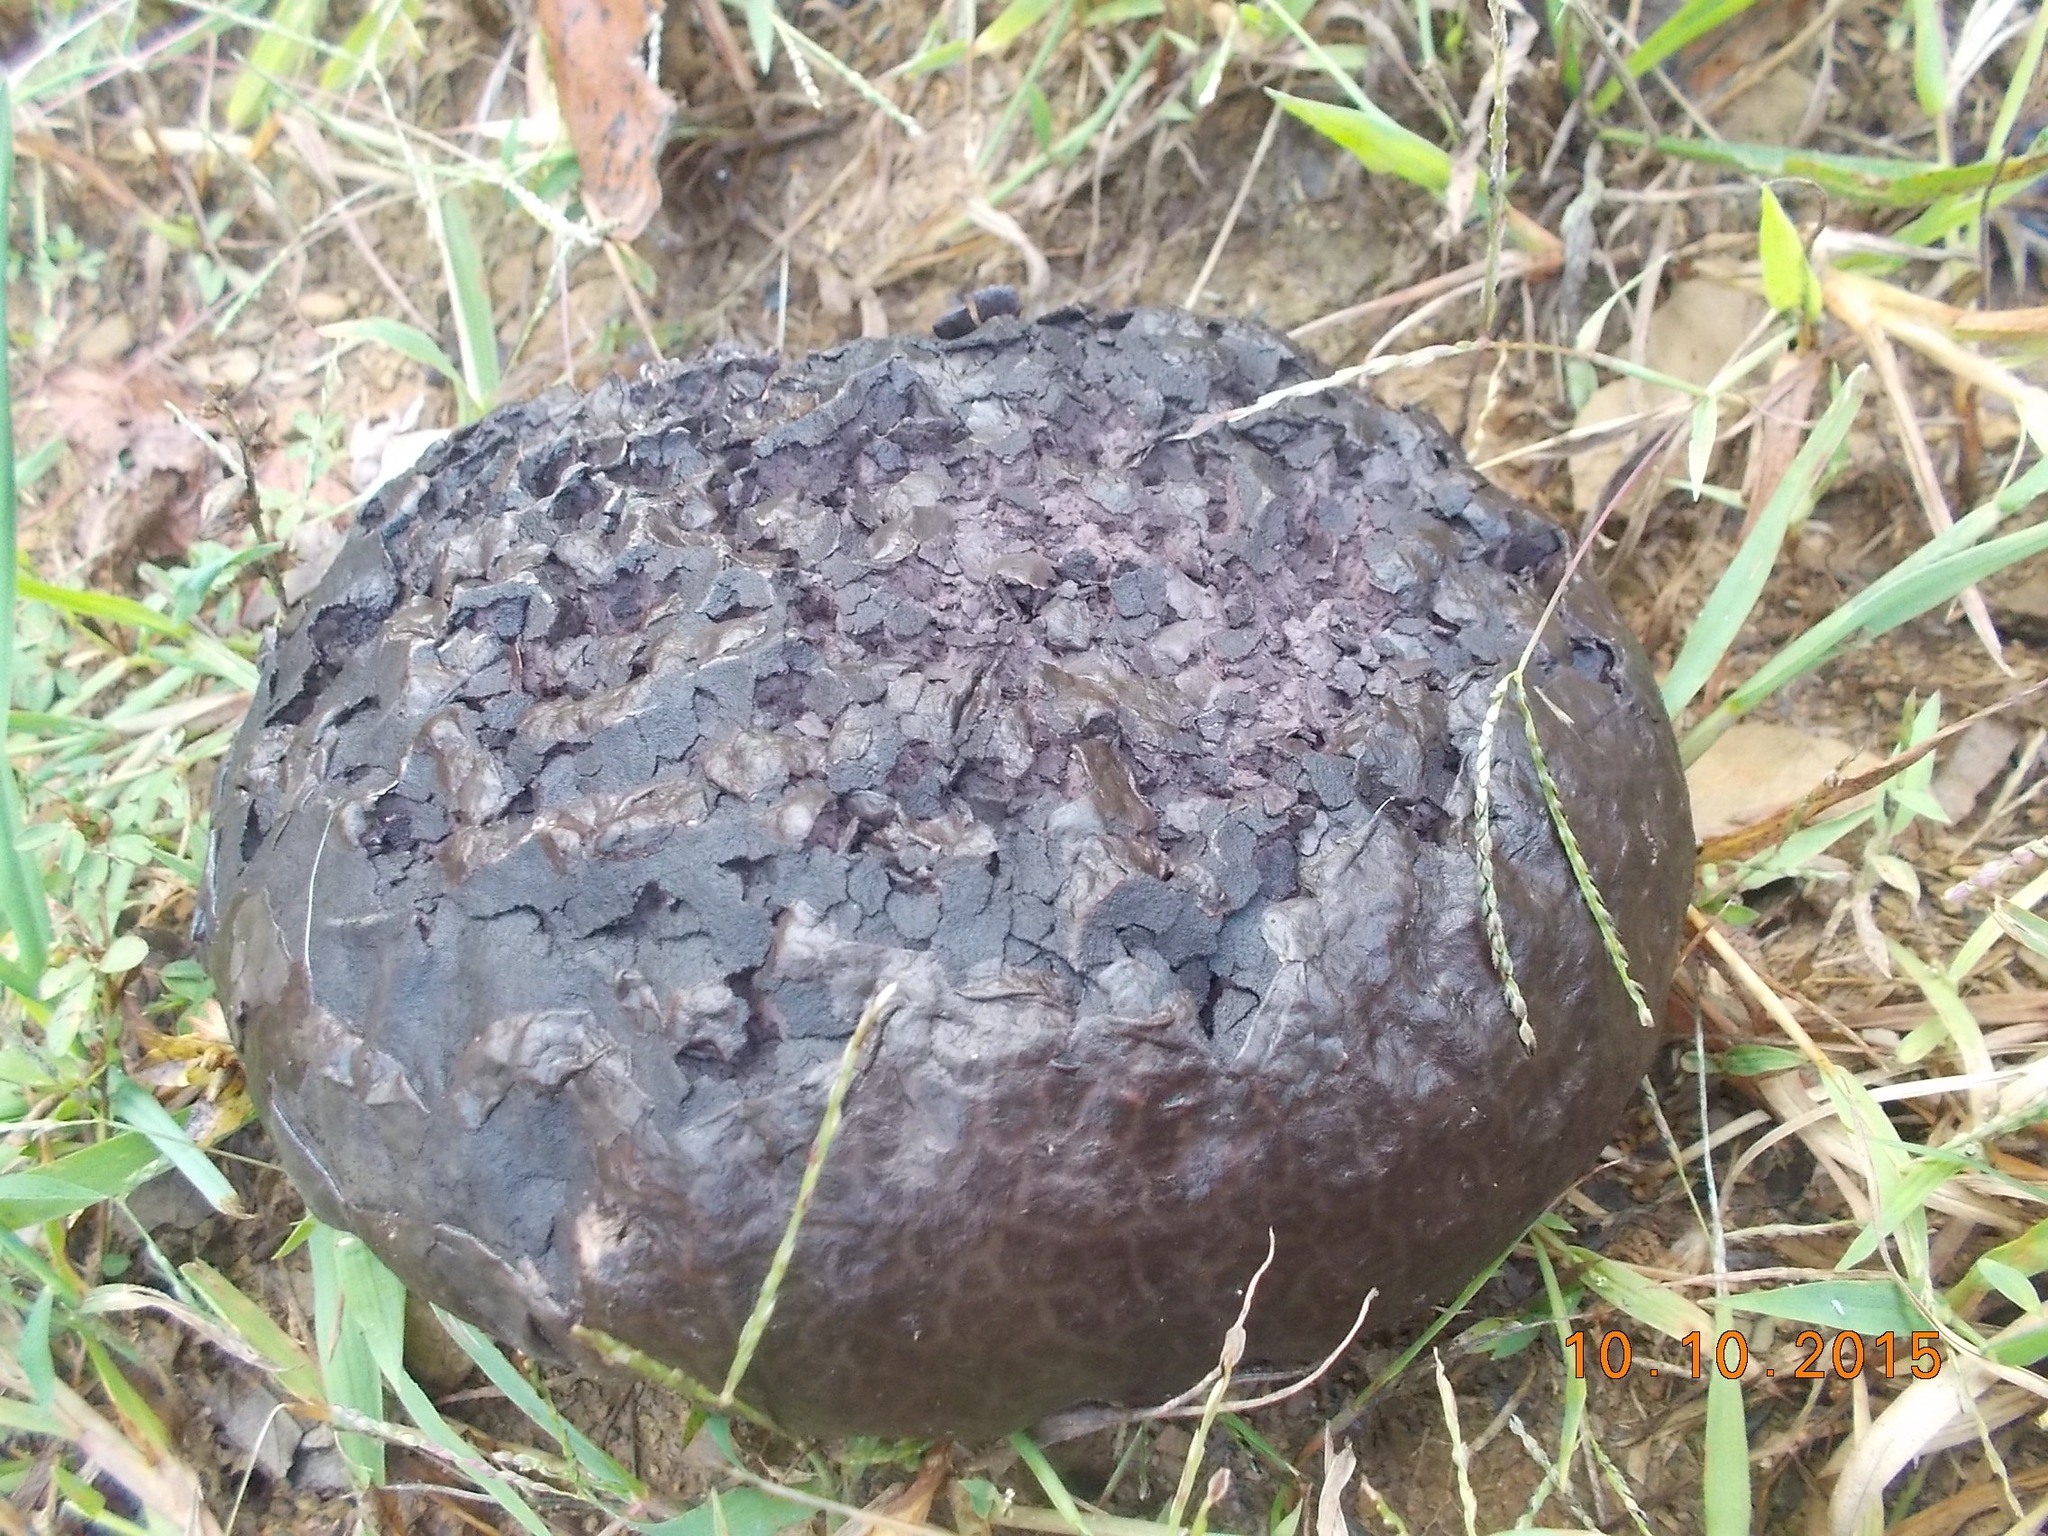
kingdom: Fungi
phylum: Basidiomycota
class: Agaricomycetes
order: Agaricales
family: Lycoperdaceae
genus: Calvatia
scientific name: Calvatia cyathiformis
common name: Purple-spored puffball
